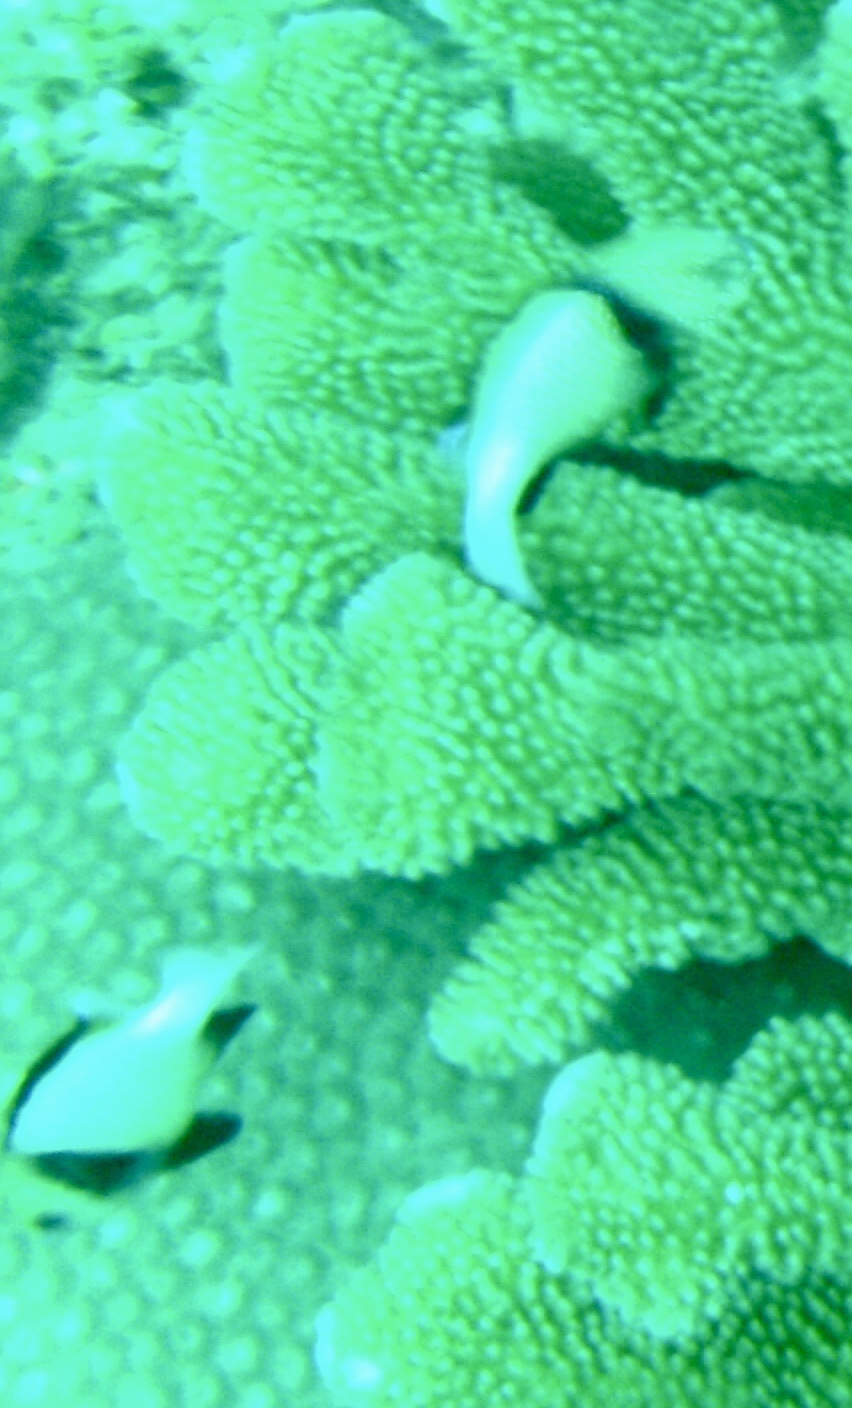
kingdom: Animalia
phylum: Chordata
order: Perciformes
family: Pomacentridae
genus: Dascyllus
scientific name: Dascyllus carneus
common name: Indian dascyllus
